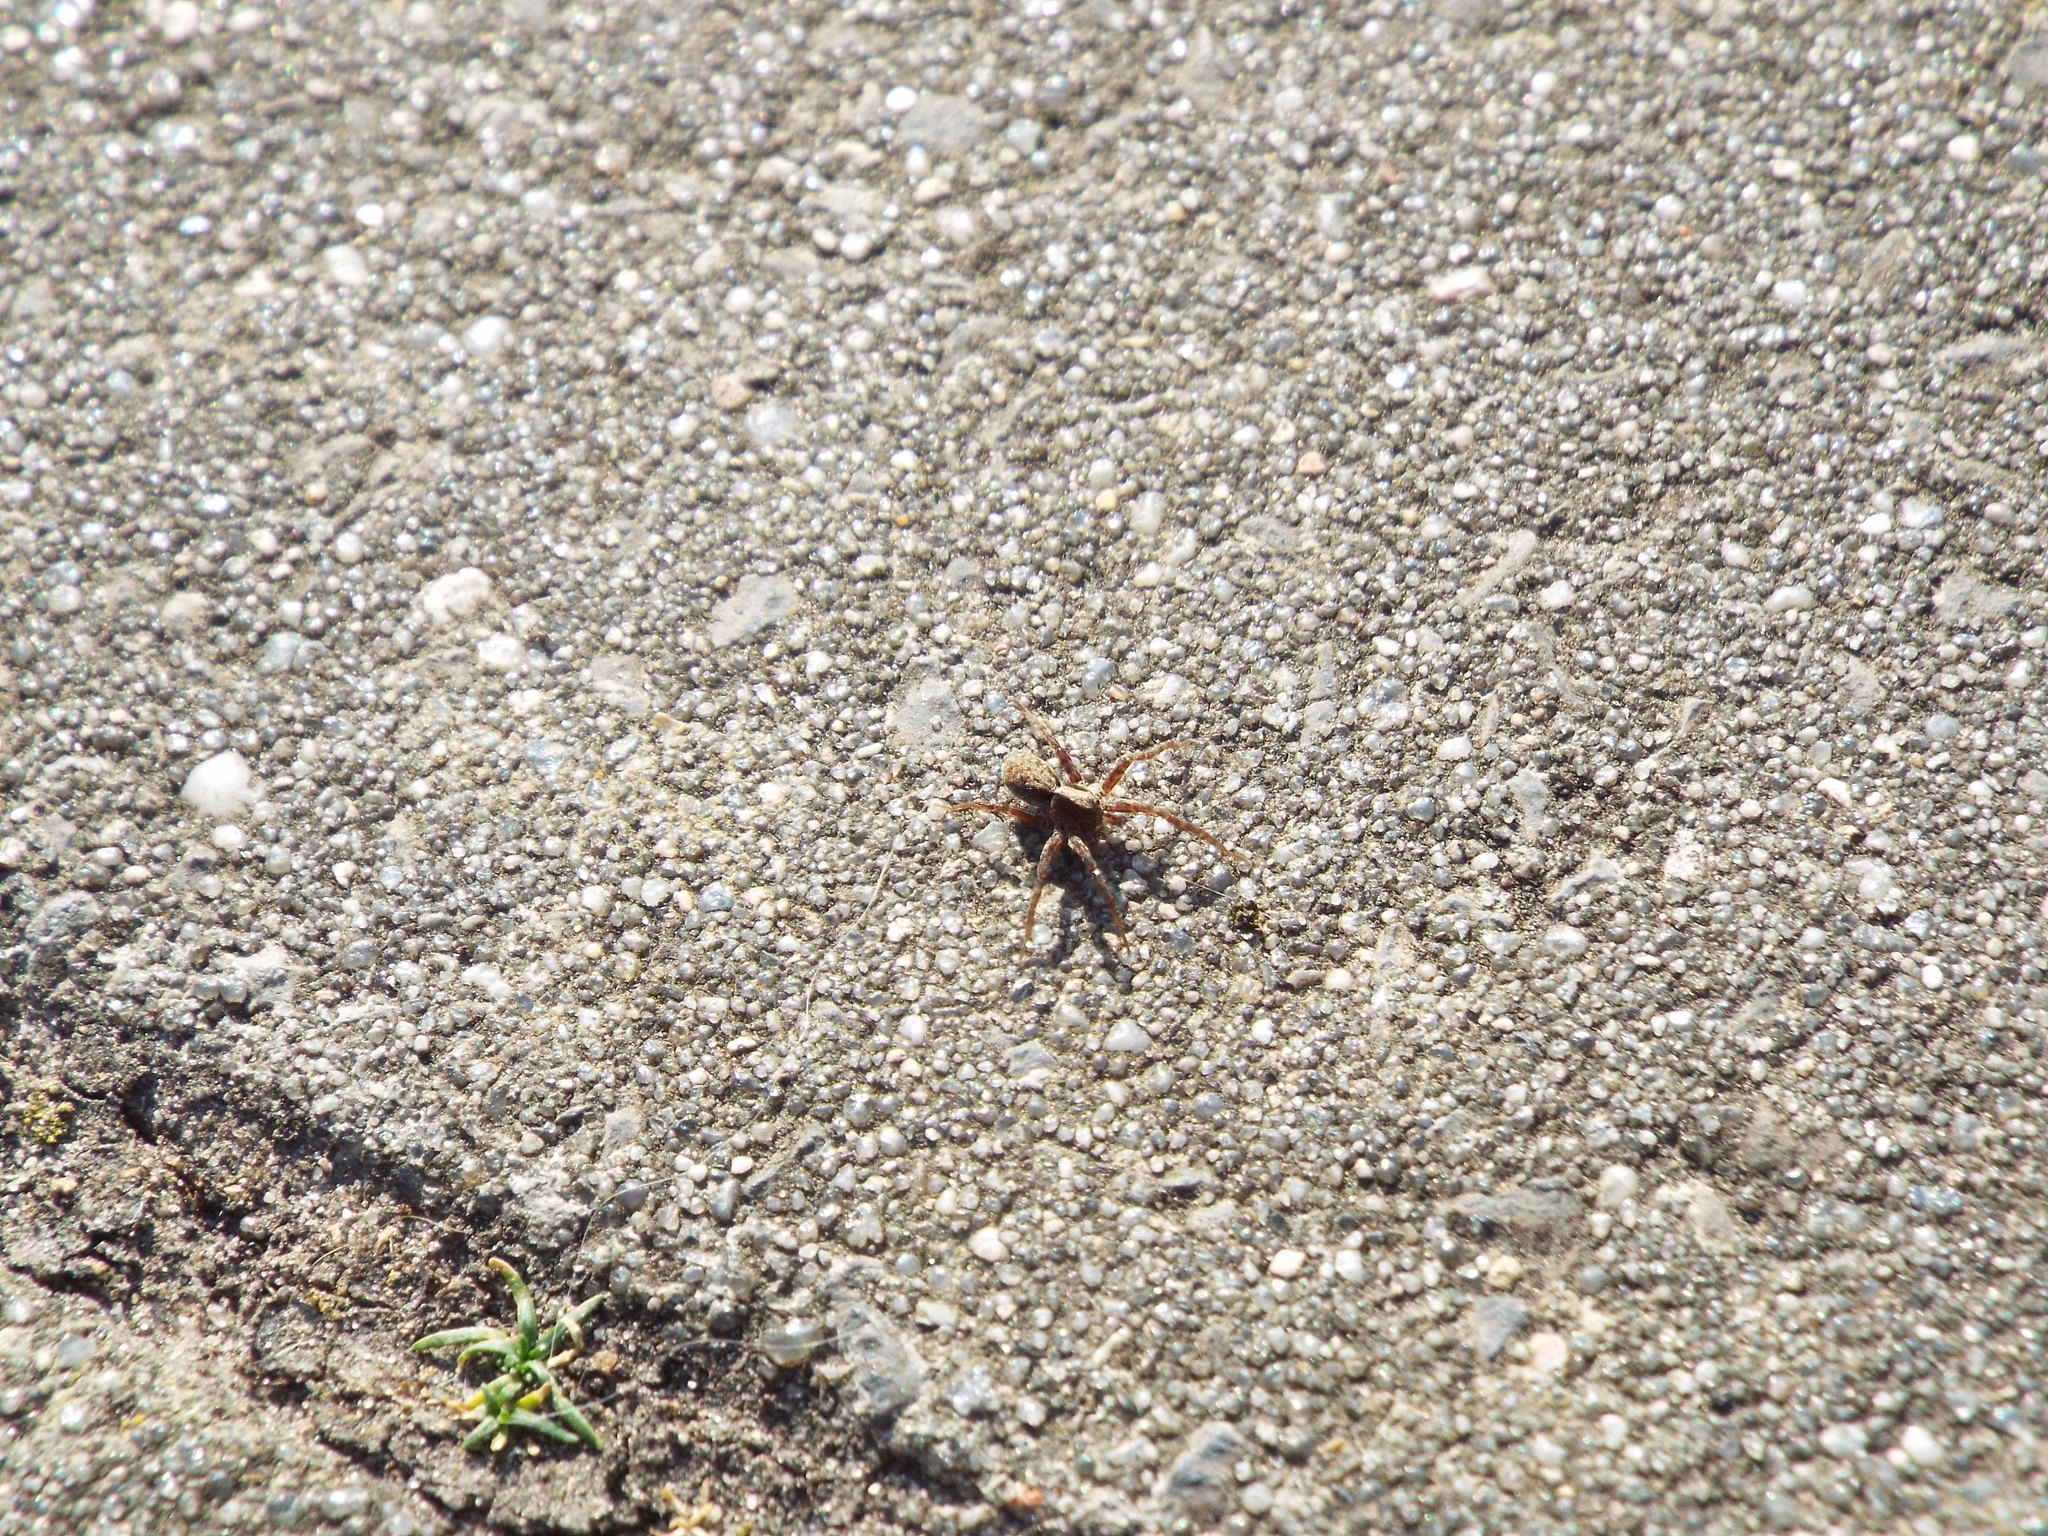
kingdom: Animalia
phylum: Arthropoda
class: Arachnida
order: Araneae
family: Lycosidae
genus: Pardosa
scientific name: Pardosa
